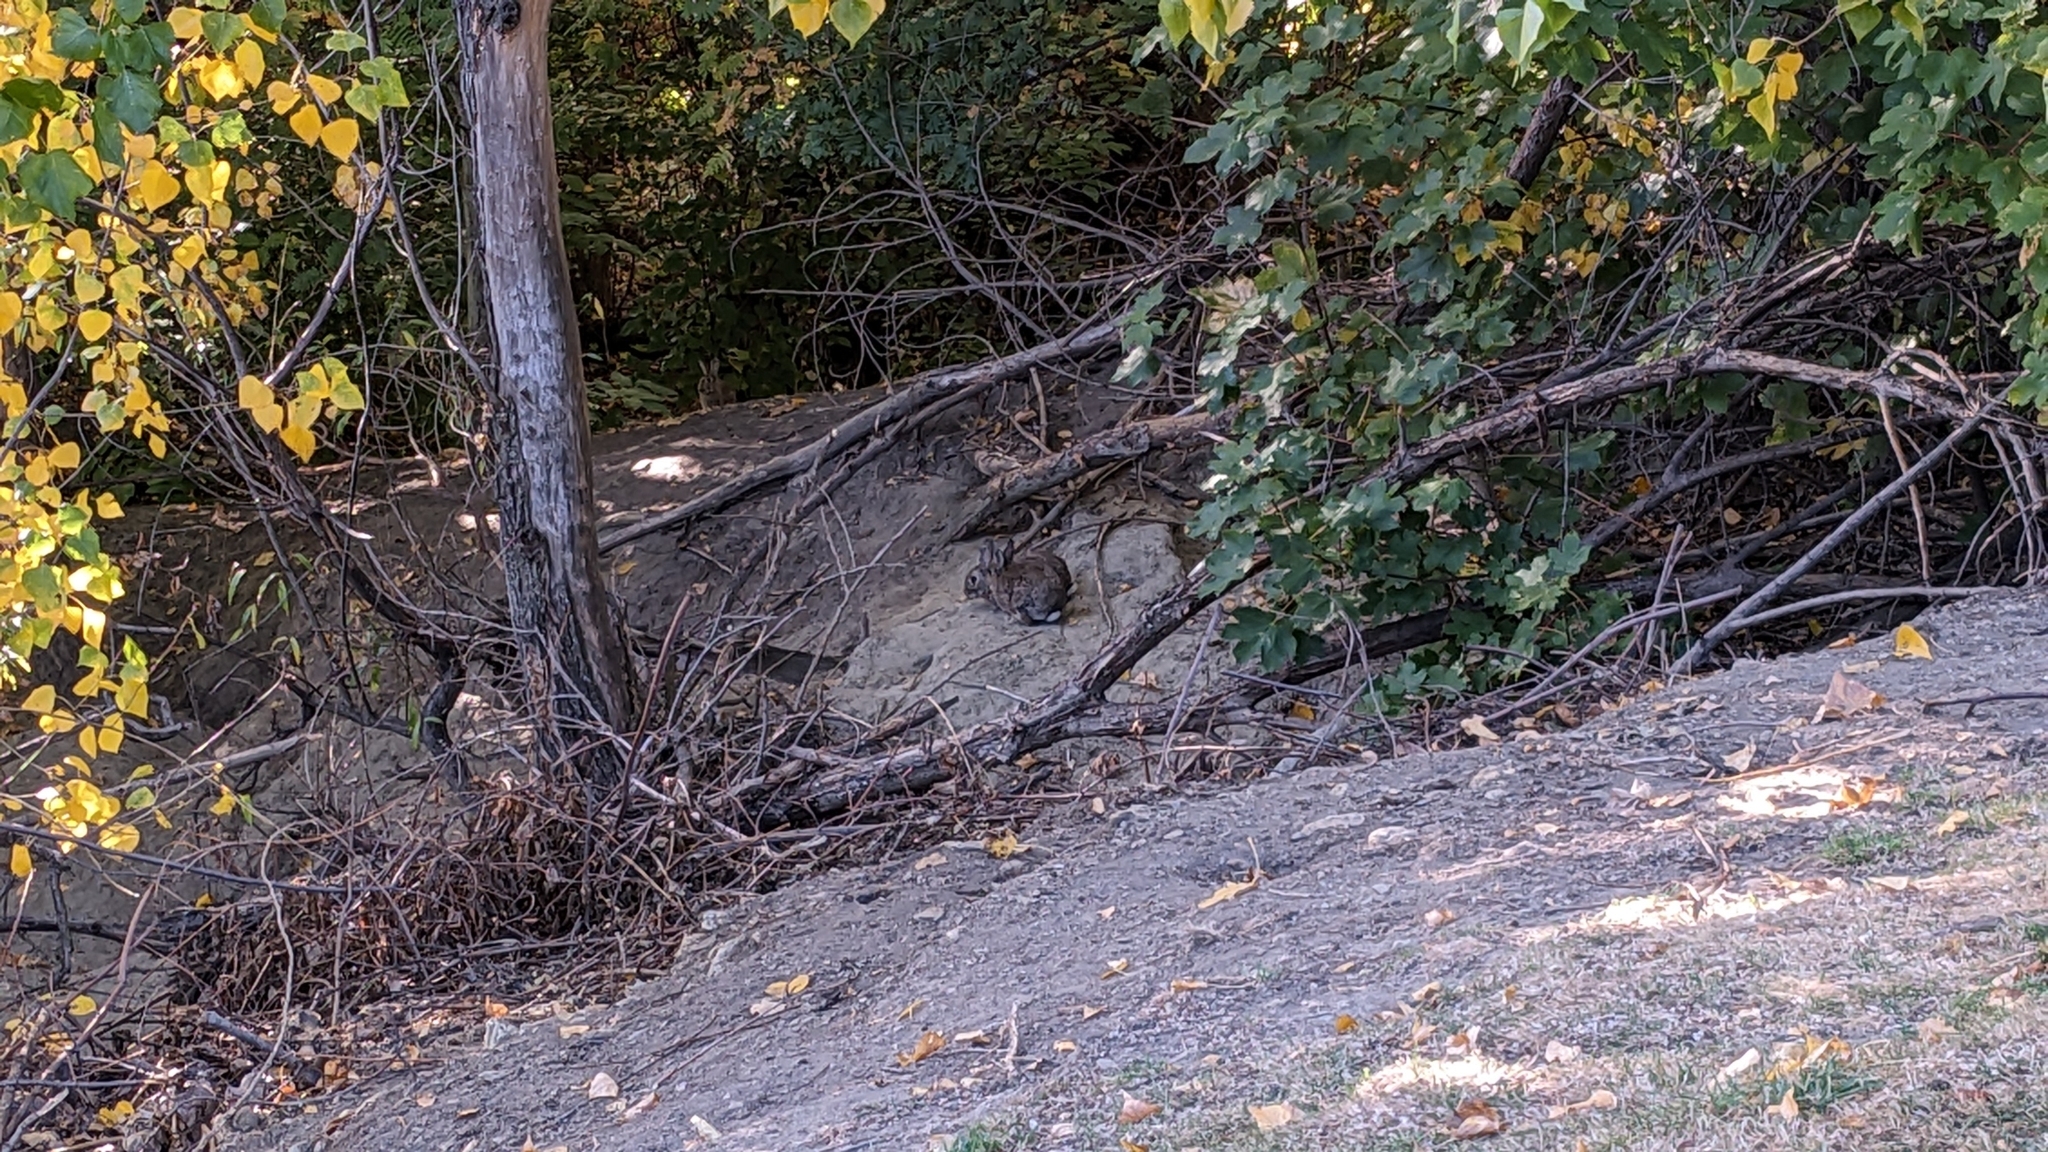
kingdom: Animalia
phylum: Chordata
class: Mammalia
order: Lagomorpha
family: Leporidae
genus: Oryctolagus
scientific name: Oryctolagus cuniculus
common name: European rabbit
